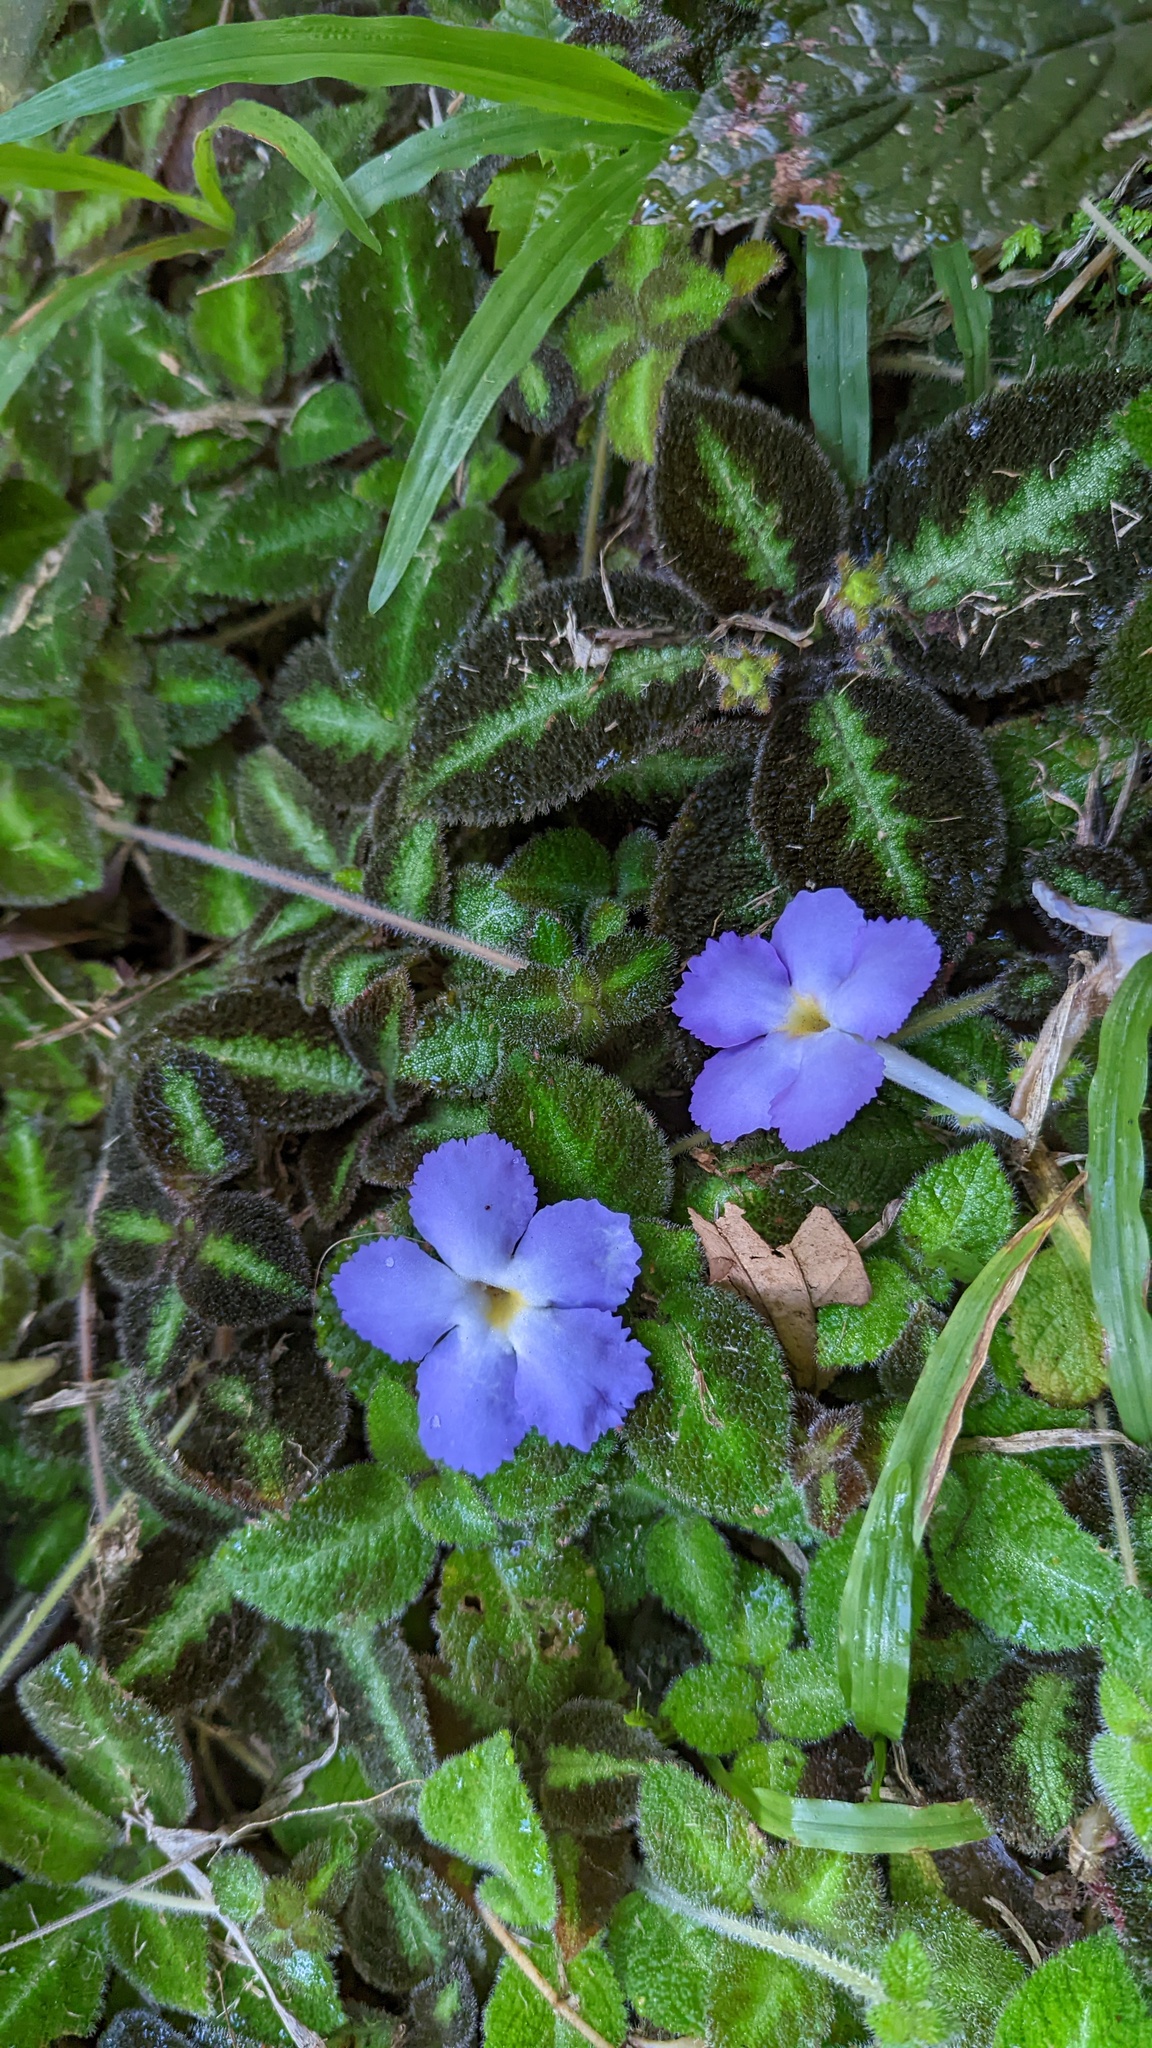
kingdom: Plantae
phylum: Tracheophyta
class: Magnoliopsida
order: Lamiales
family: Gesneriaceae
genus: Episcia
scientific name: Episcia lilacina
